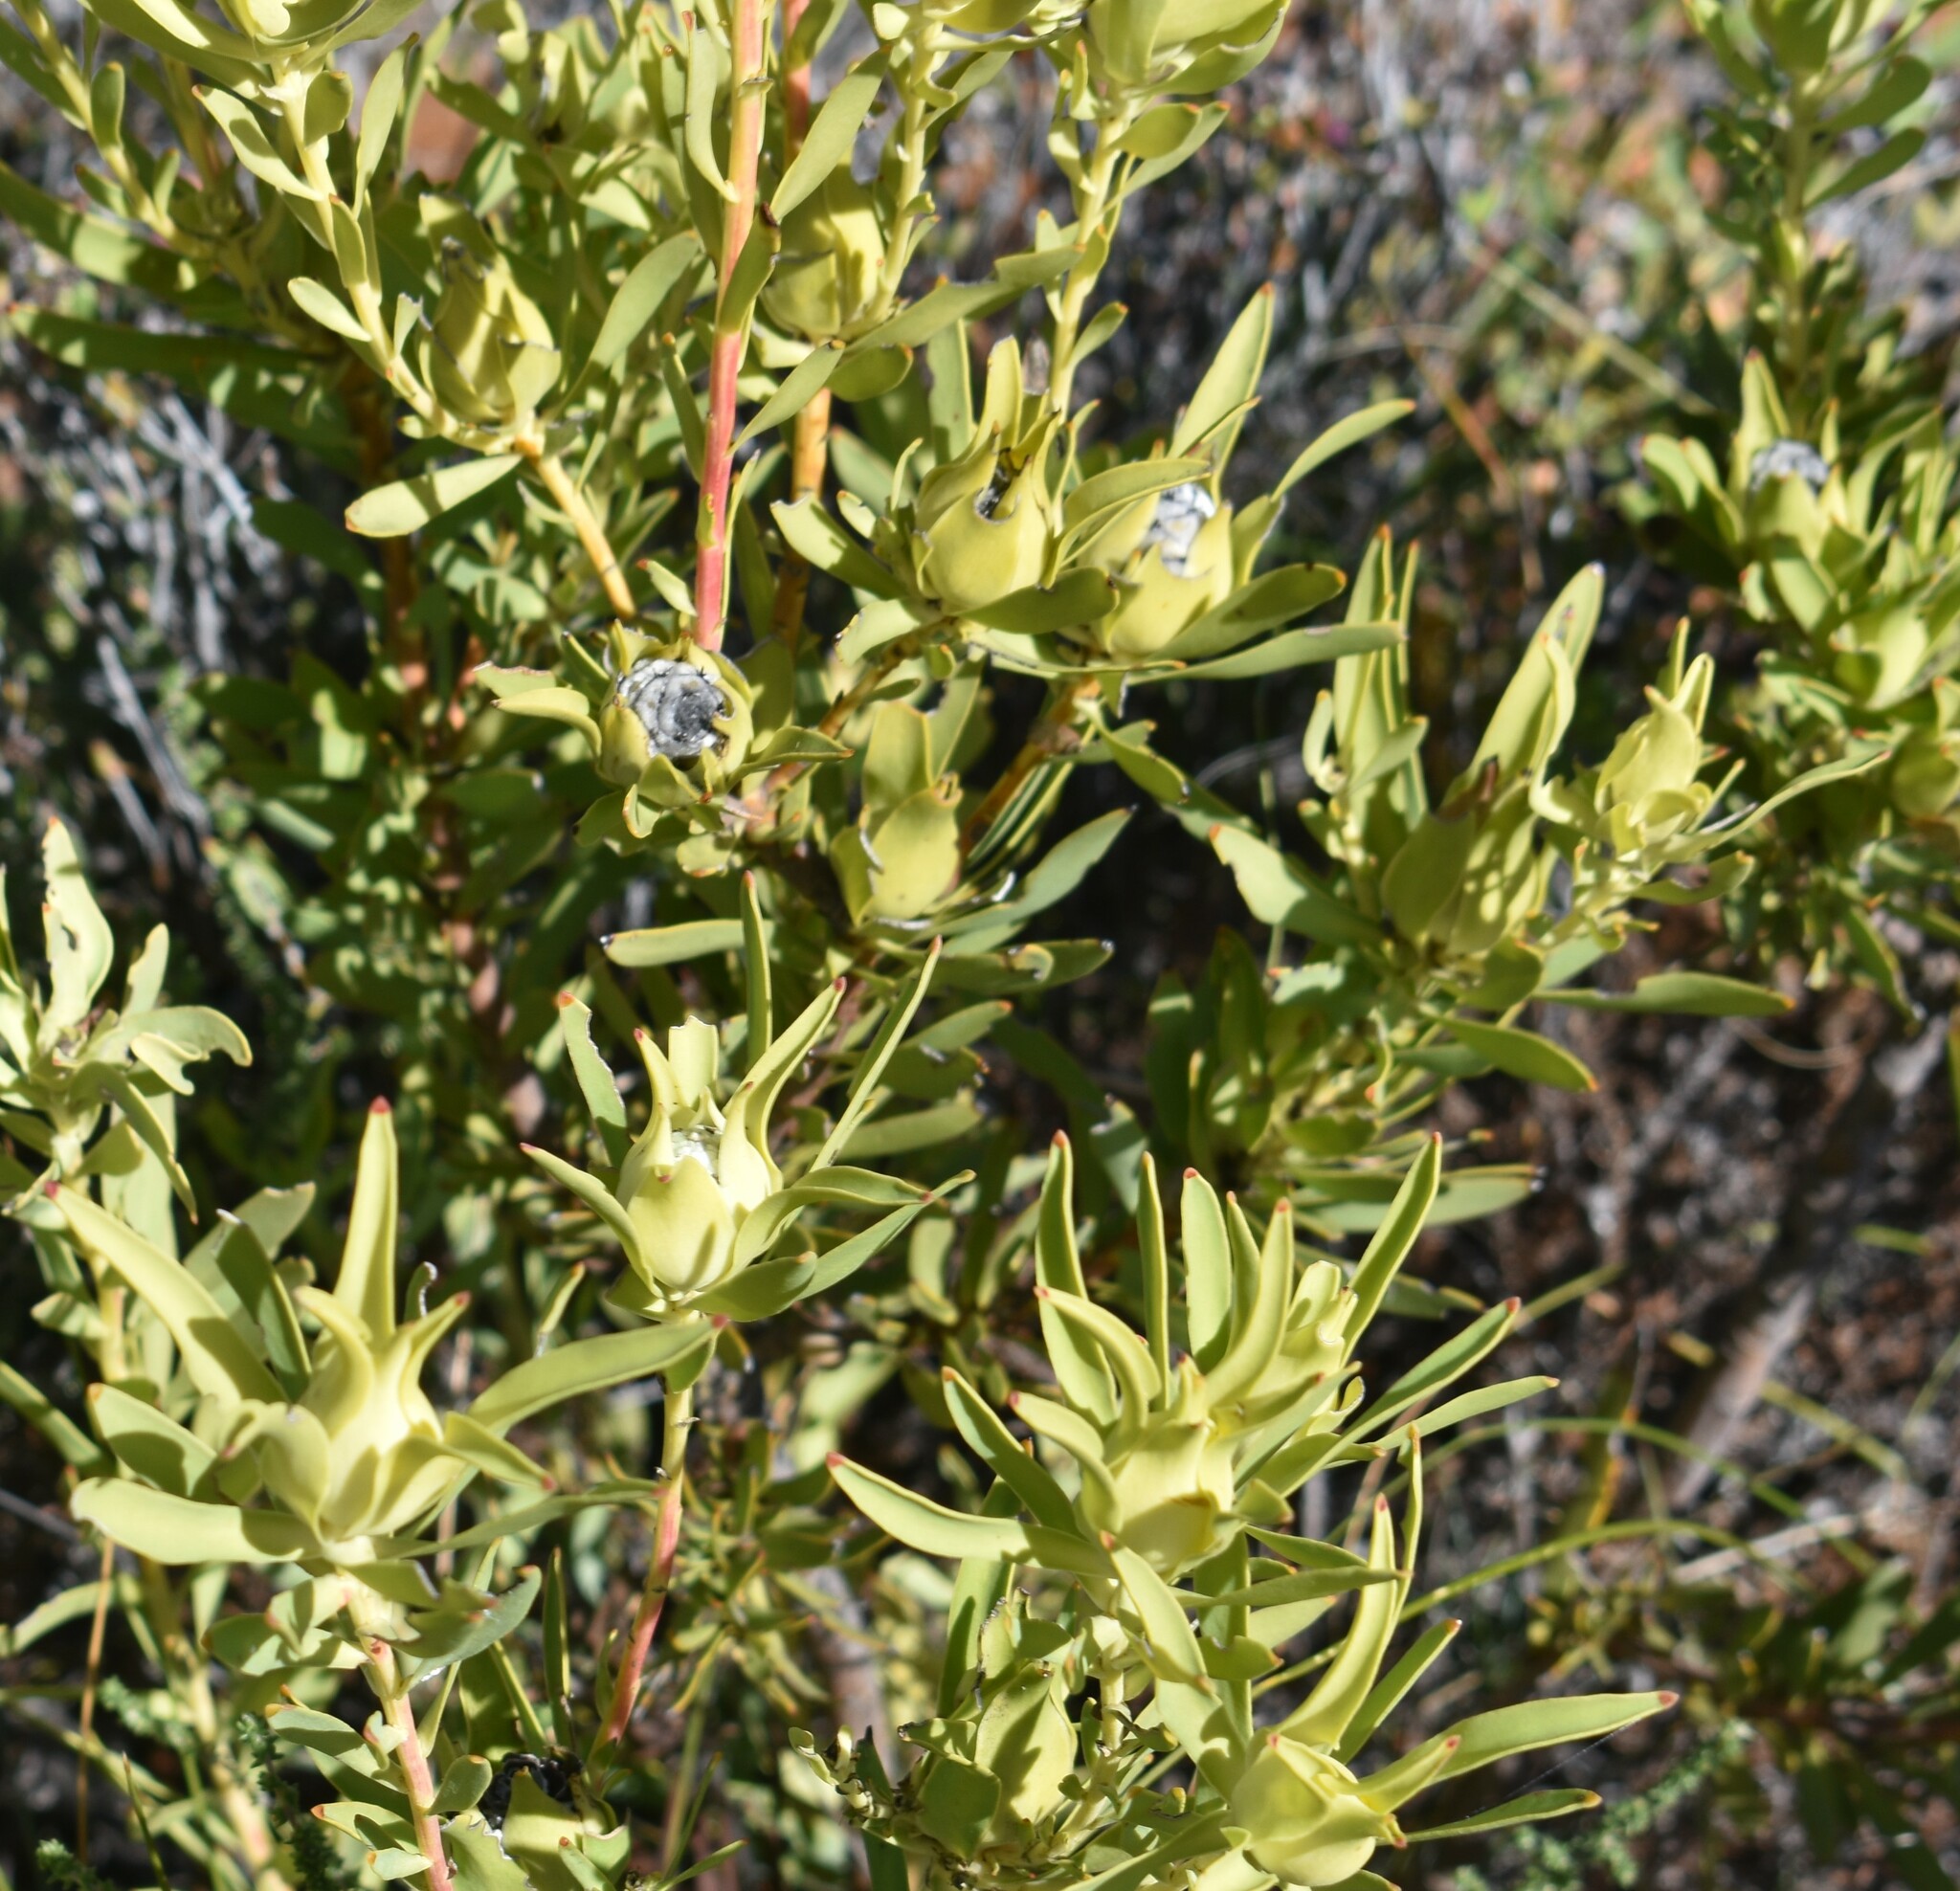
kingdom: Plantae
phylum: Tracheophyta
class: Magnoliopsida
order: Proteales
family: Proteaceae
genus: Leucadendron
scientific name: Leucadendron salignum
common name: Common sunshine conebush
